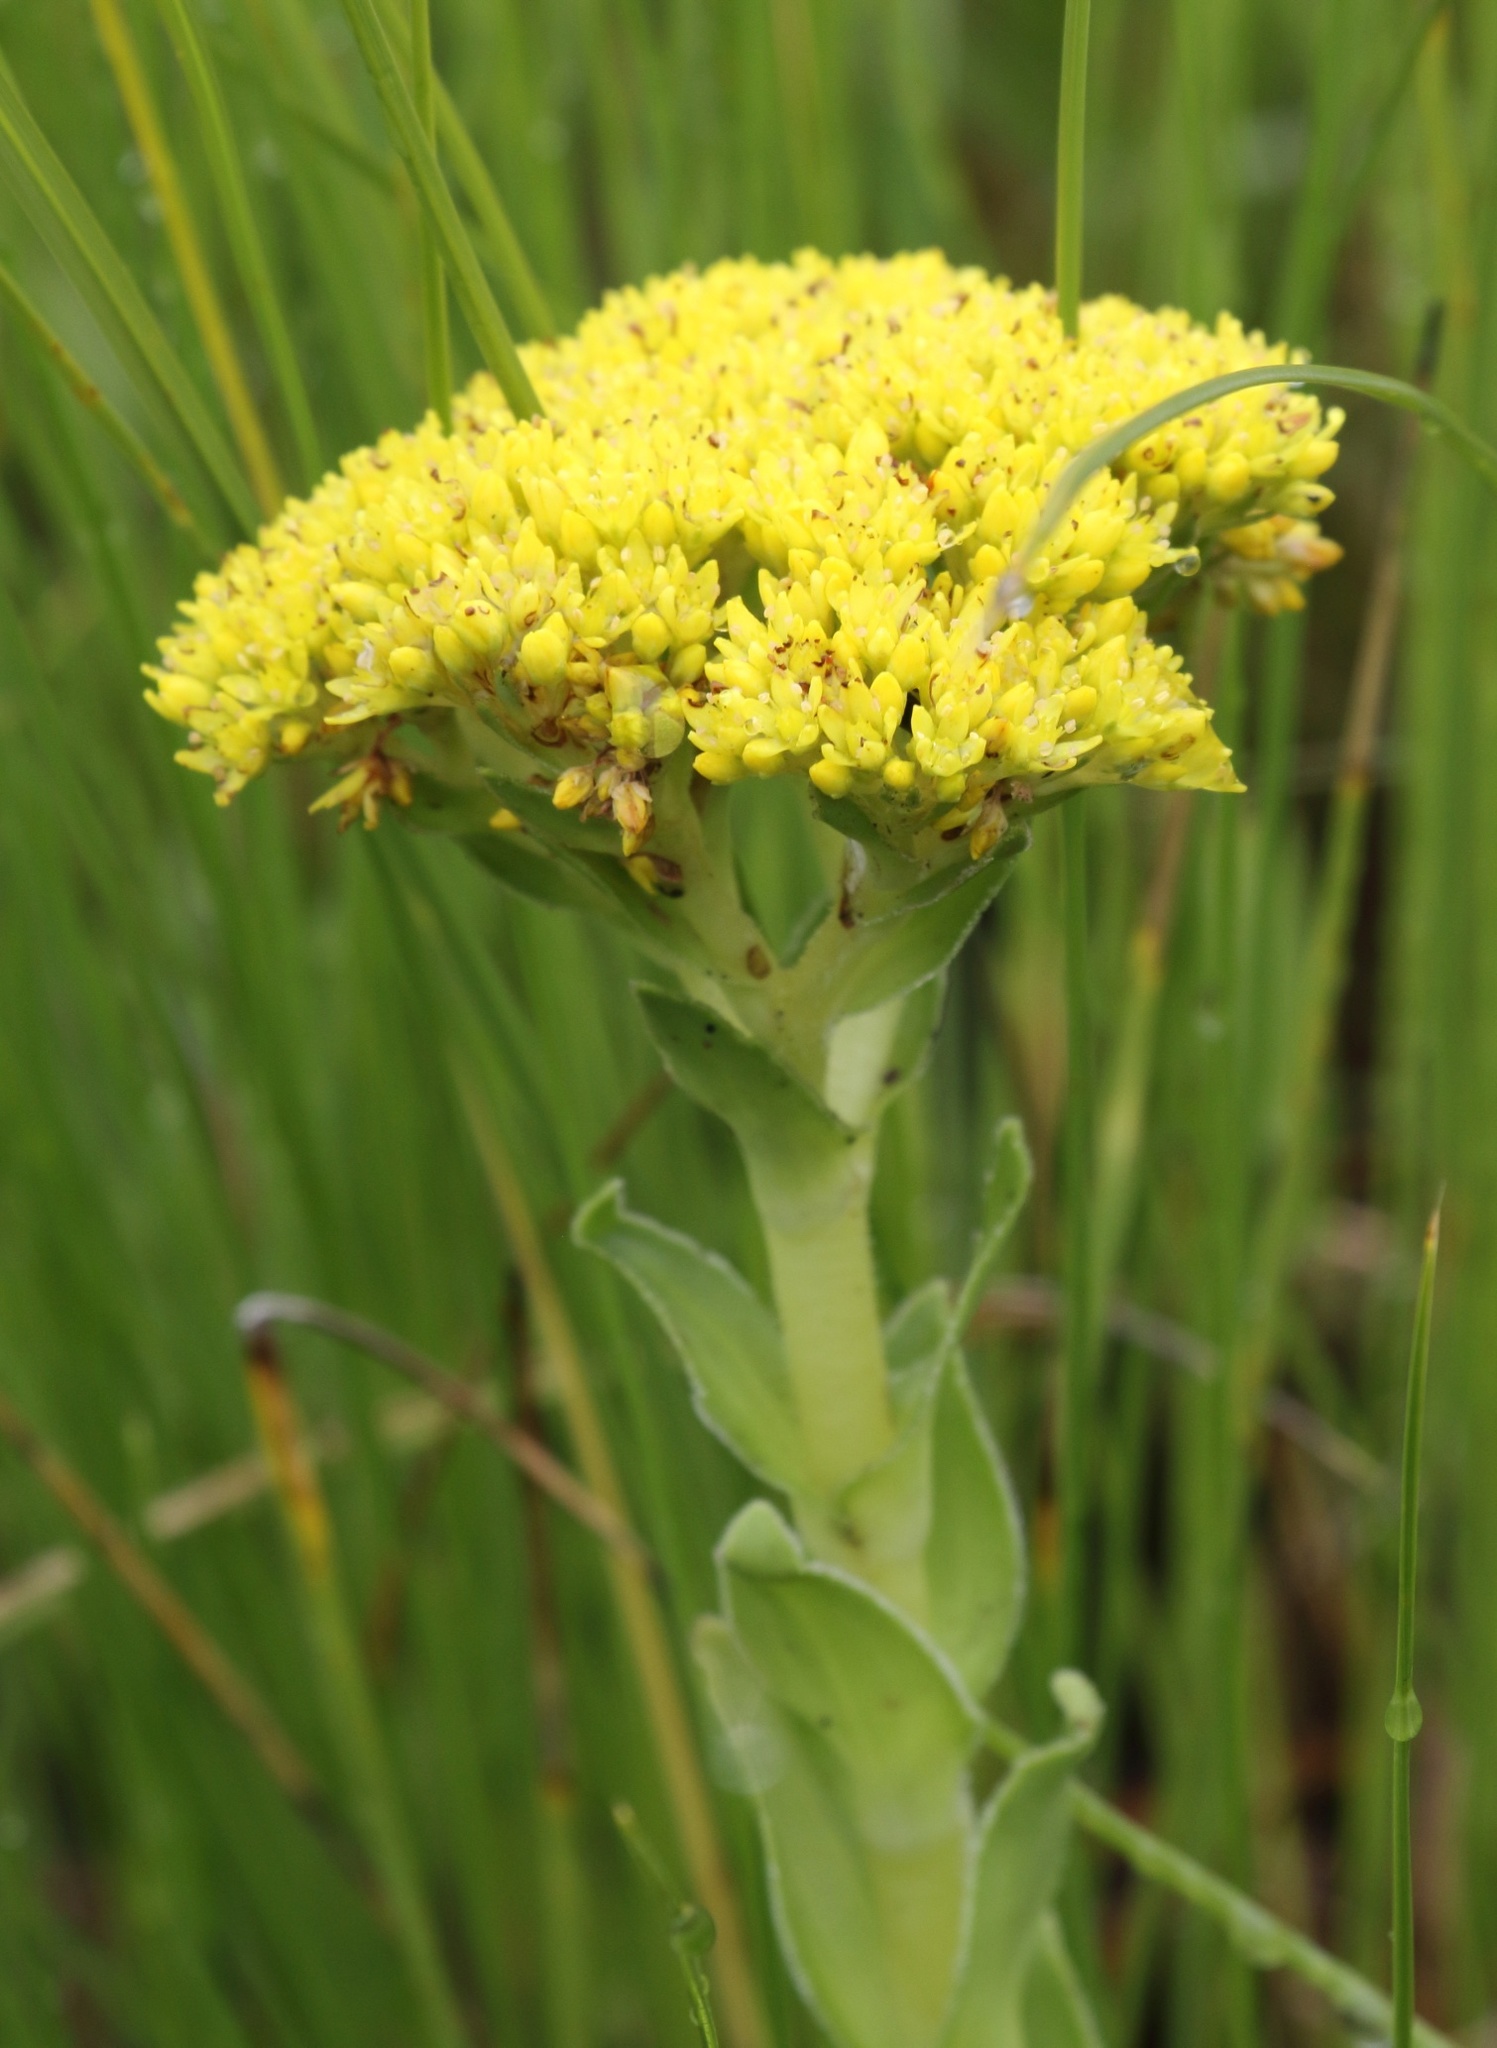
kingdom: Plantae
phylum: Tracheophyta
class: Magnoliopsida
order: Saxifragales
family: Crassulaceae
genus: Crassula
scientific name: Crassula vaginata
